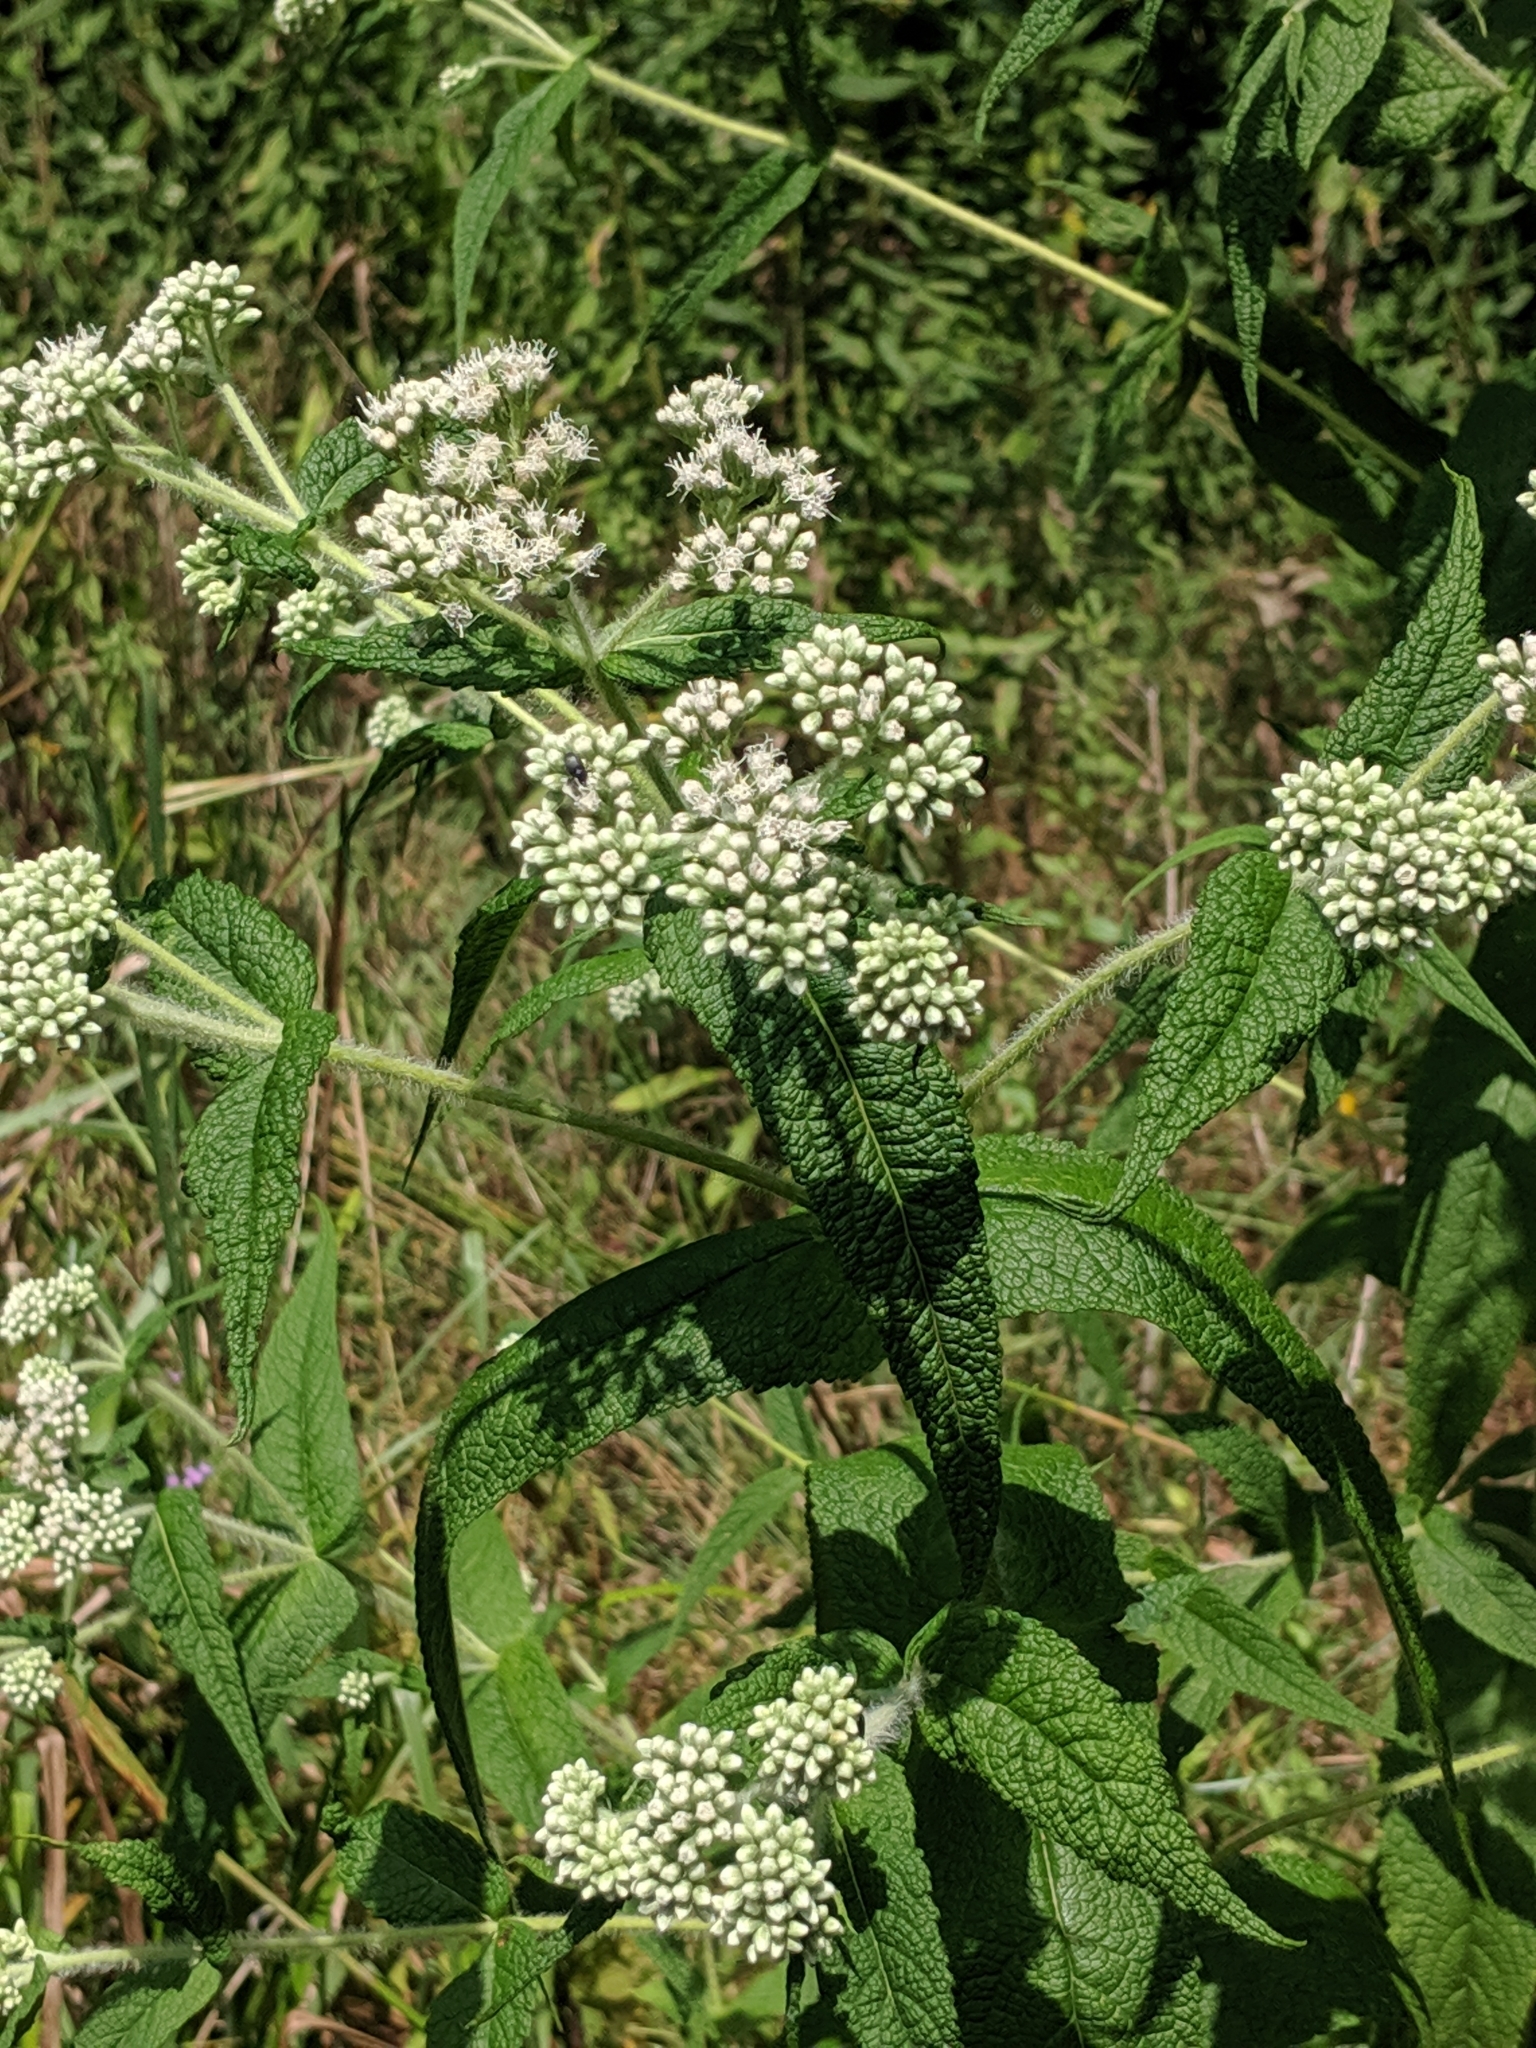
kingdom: Plantae
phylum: Tracheophyta
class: Magnoliopsida
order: Asterales
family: Asteraceae
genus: Eupatorium
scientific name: Eupatorium perfoliatum
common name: Boneset
